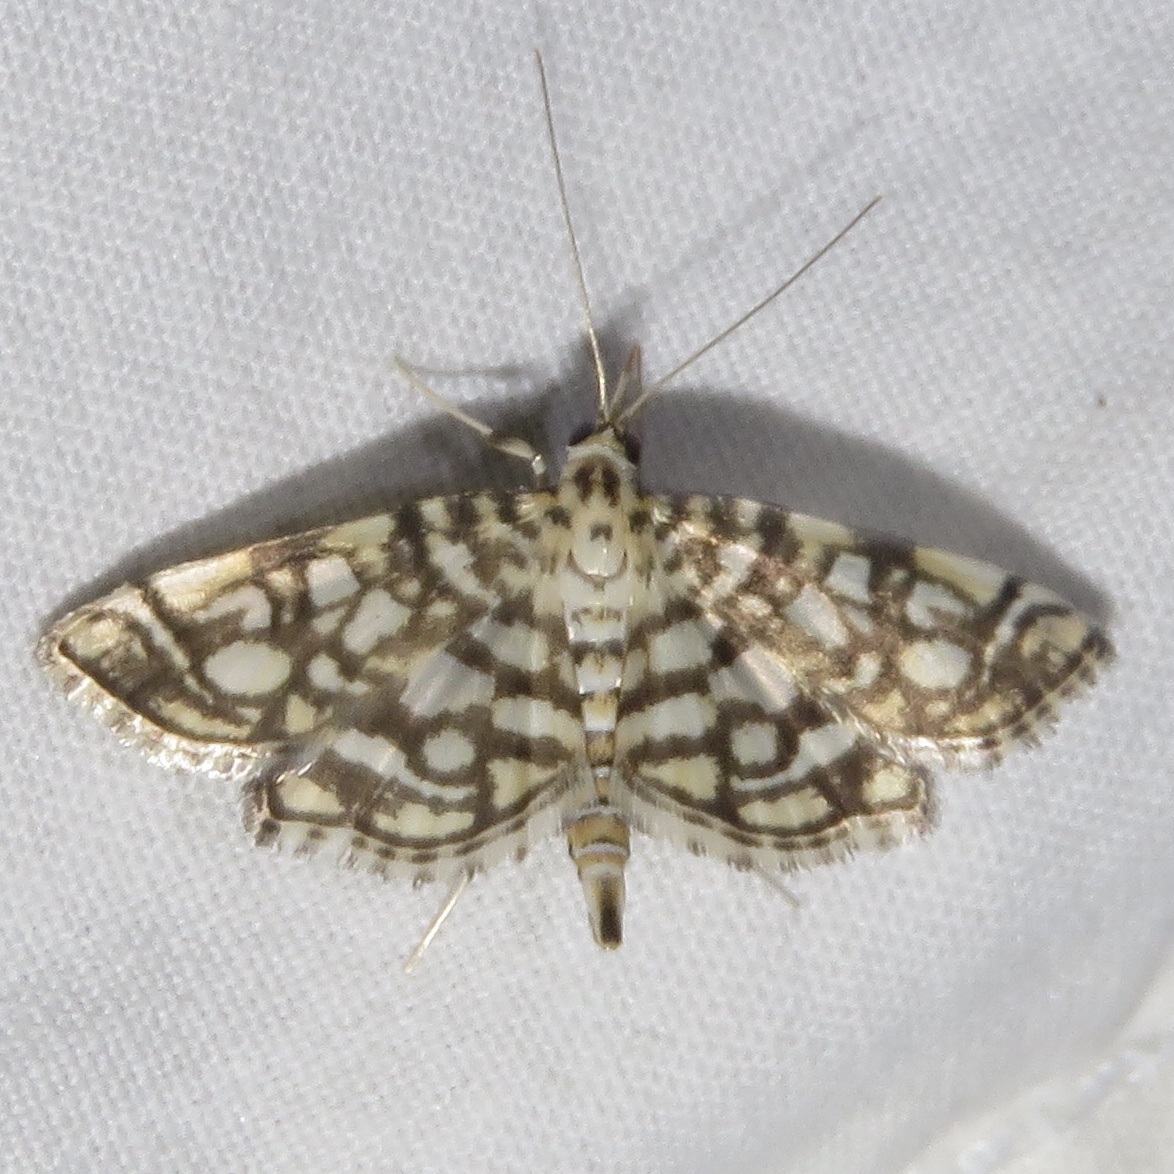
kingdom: Animalia
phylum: Arthropoda
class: Insecta
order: Lepidoptera
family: Crambidae
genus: Lygropia
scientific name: Lygropia rivulalis
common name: Bog lygropia moth
